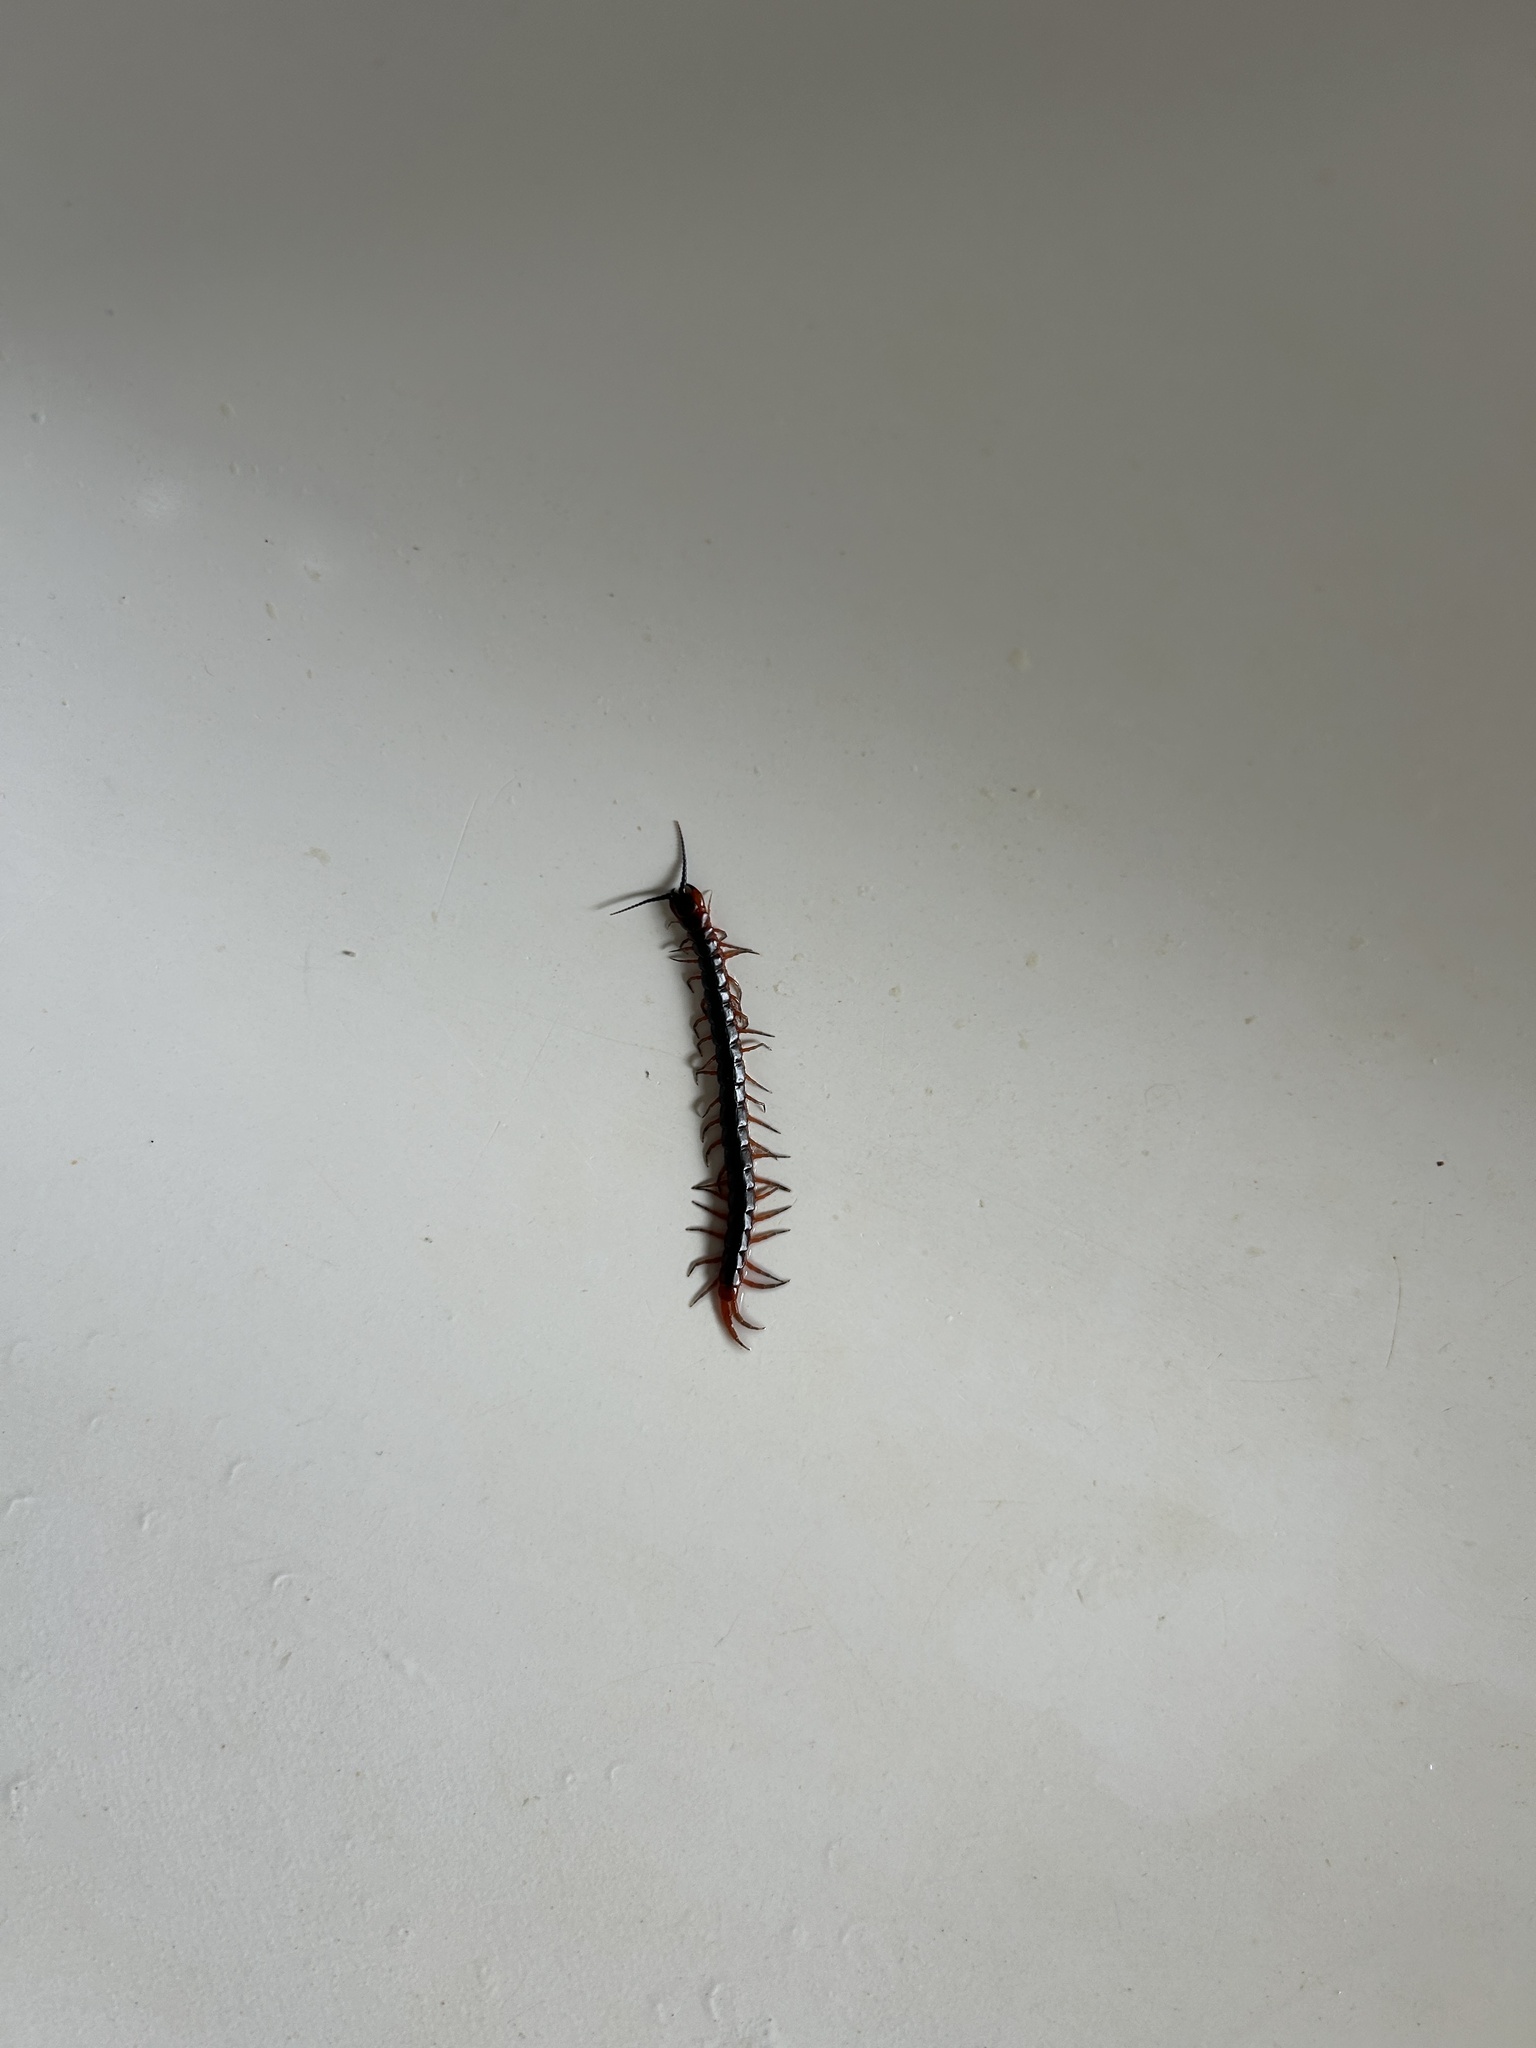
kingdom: Animalia
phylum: Arthropoda
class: Chilopoda
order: Scolopendromorpha
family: Scolopendridae
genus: Cormocephalus
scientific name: Cormocephalus nitidus
